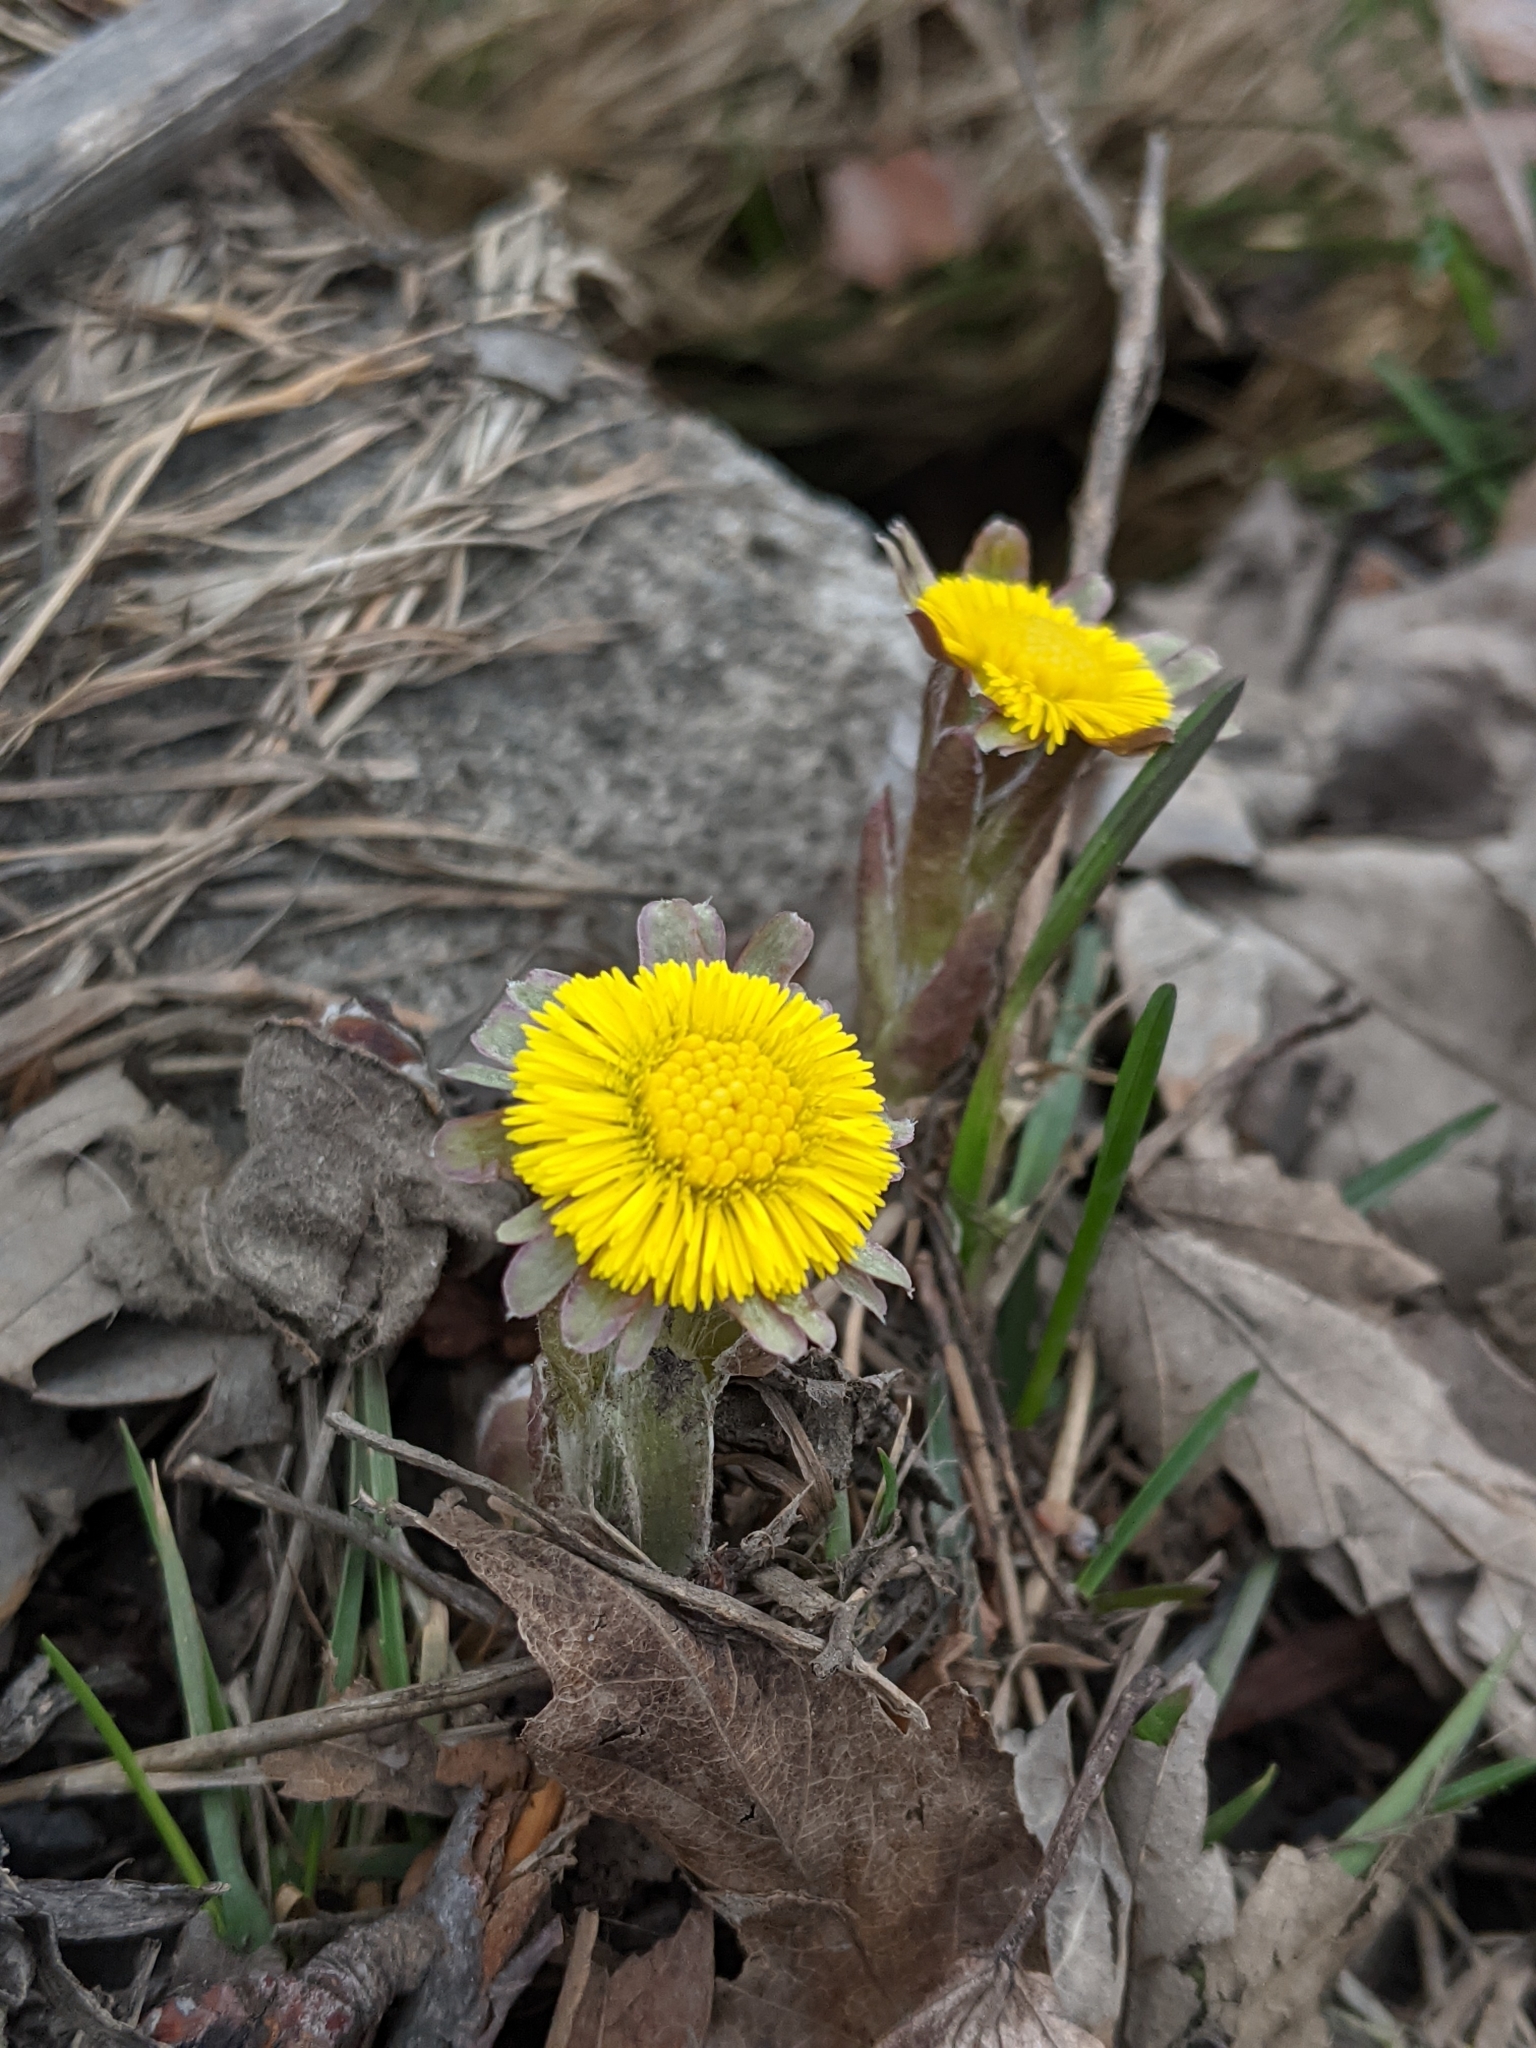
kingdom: Plantae
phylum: Tracheophyta
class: Magnoliopsida
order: Asterales
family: Asteraceae
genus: Tussilago
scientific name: Tussilago farfara
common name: Coltsfoot
